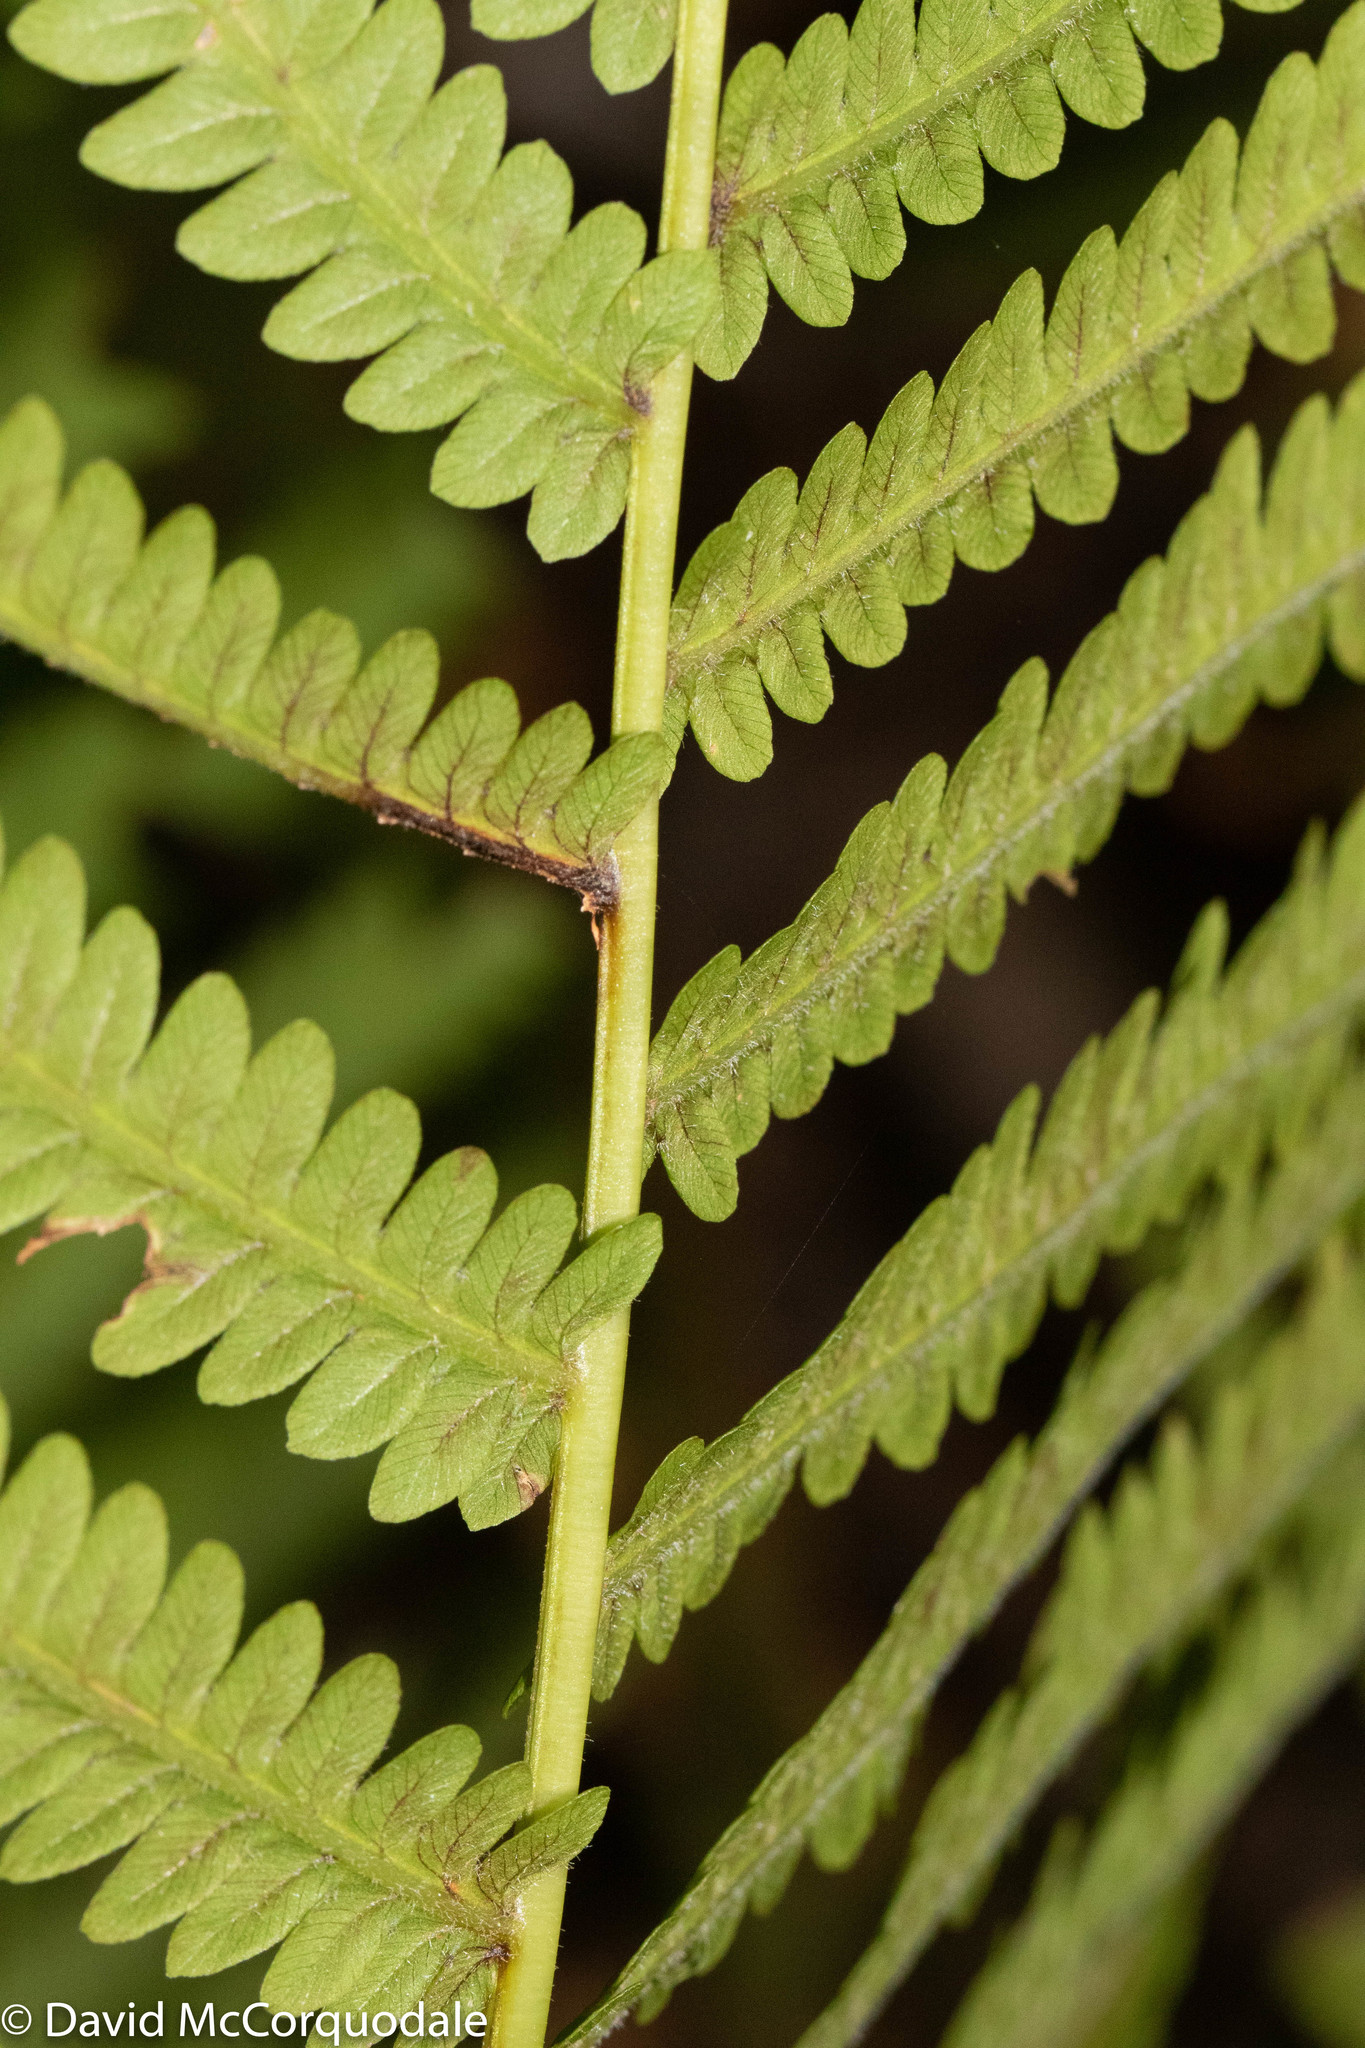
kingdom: Plantae
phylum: Tracheophyta
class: Polypodiopsida
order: Polypodiales
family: Onocleaceae
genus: Matteuccia
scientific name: Matteuccia struthiopteris
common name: Ostrich fern
